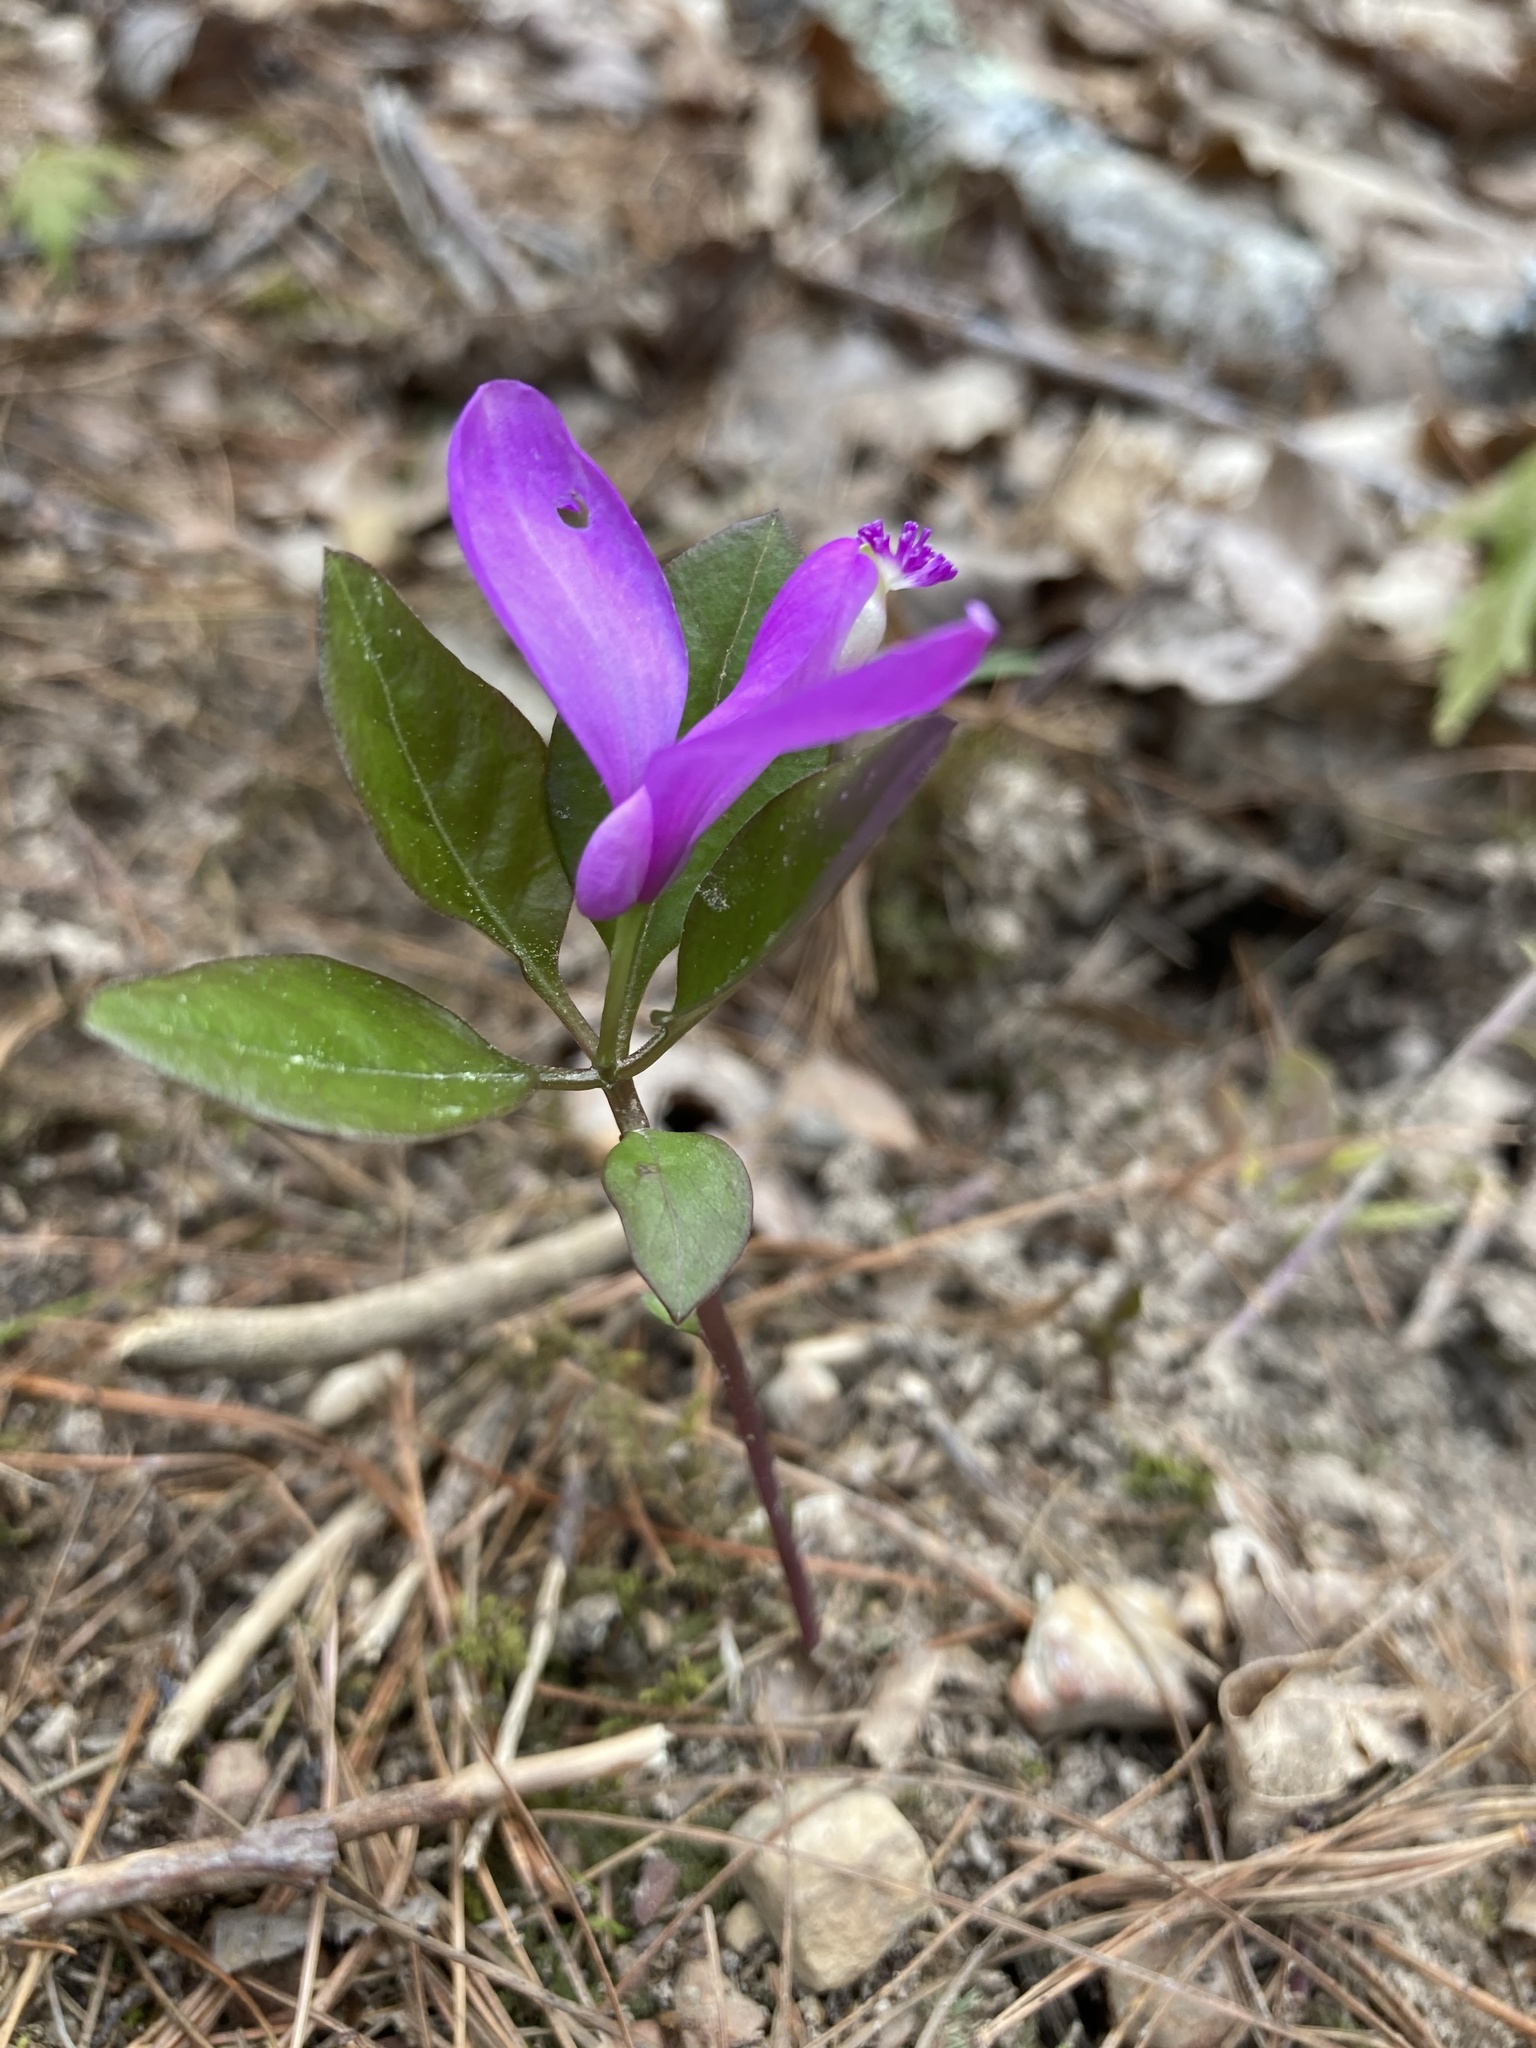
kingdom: Plantae
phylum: Tracheophyta
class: Magnoliopsida
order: Fabales
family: Polygalaceae
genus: Polygaloides
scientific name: Polygaloides paucifolia
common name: Bird-on-the-wing
